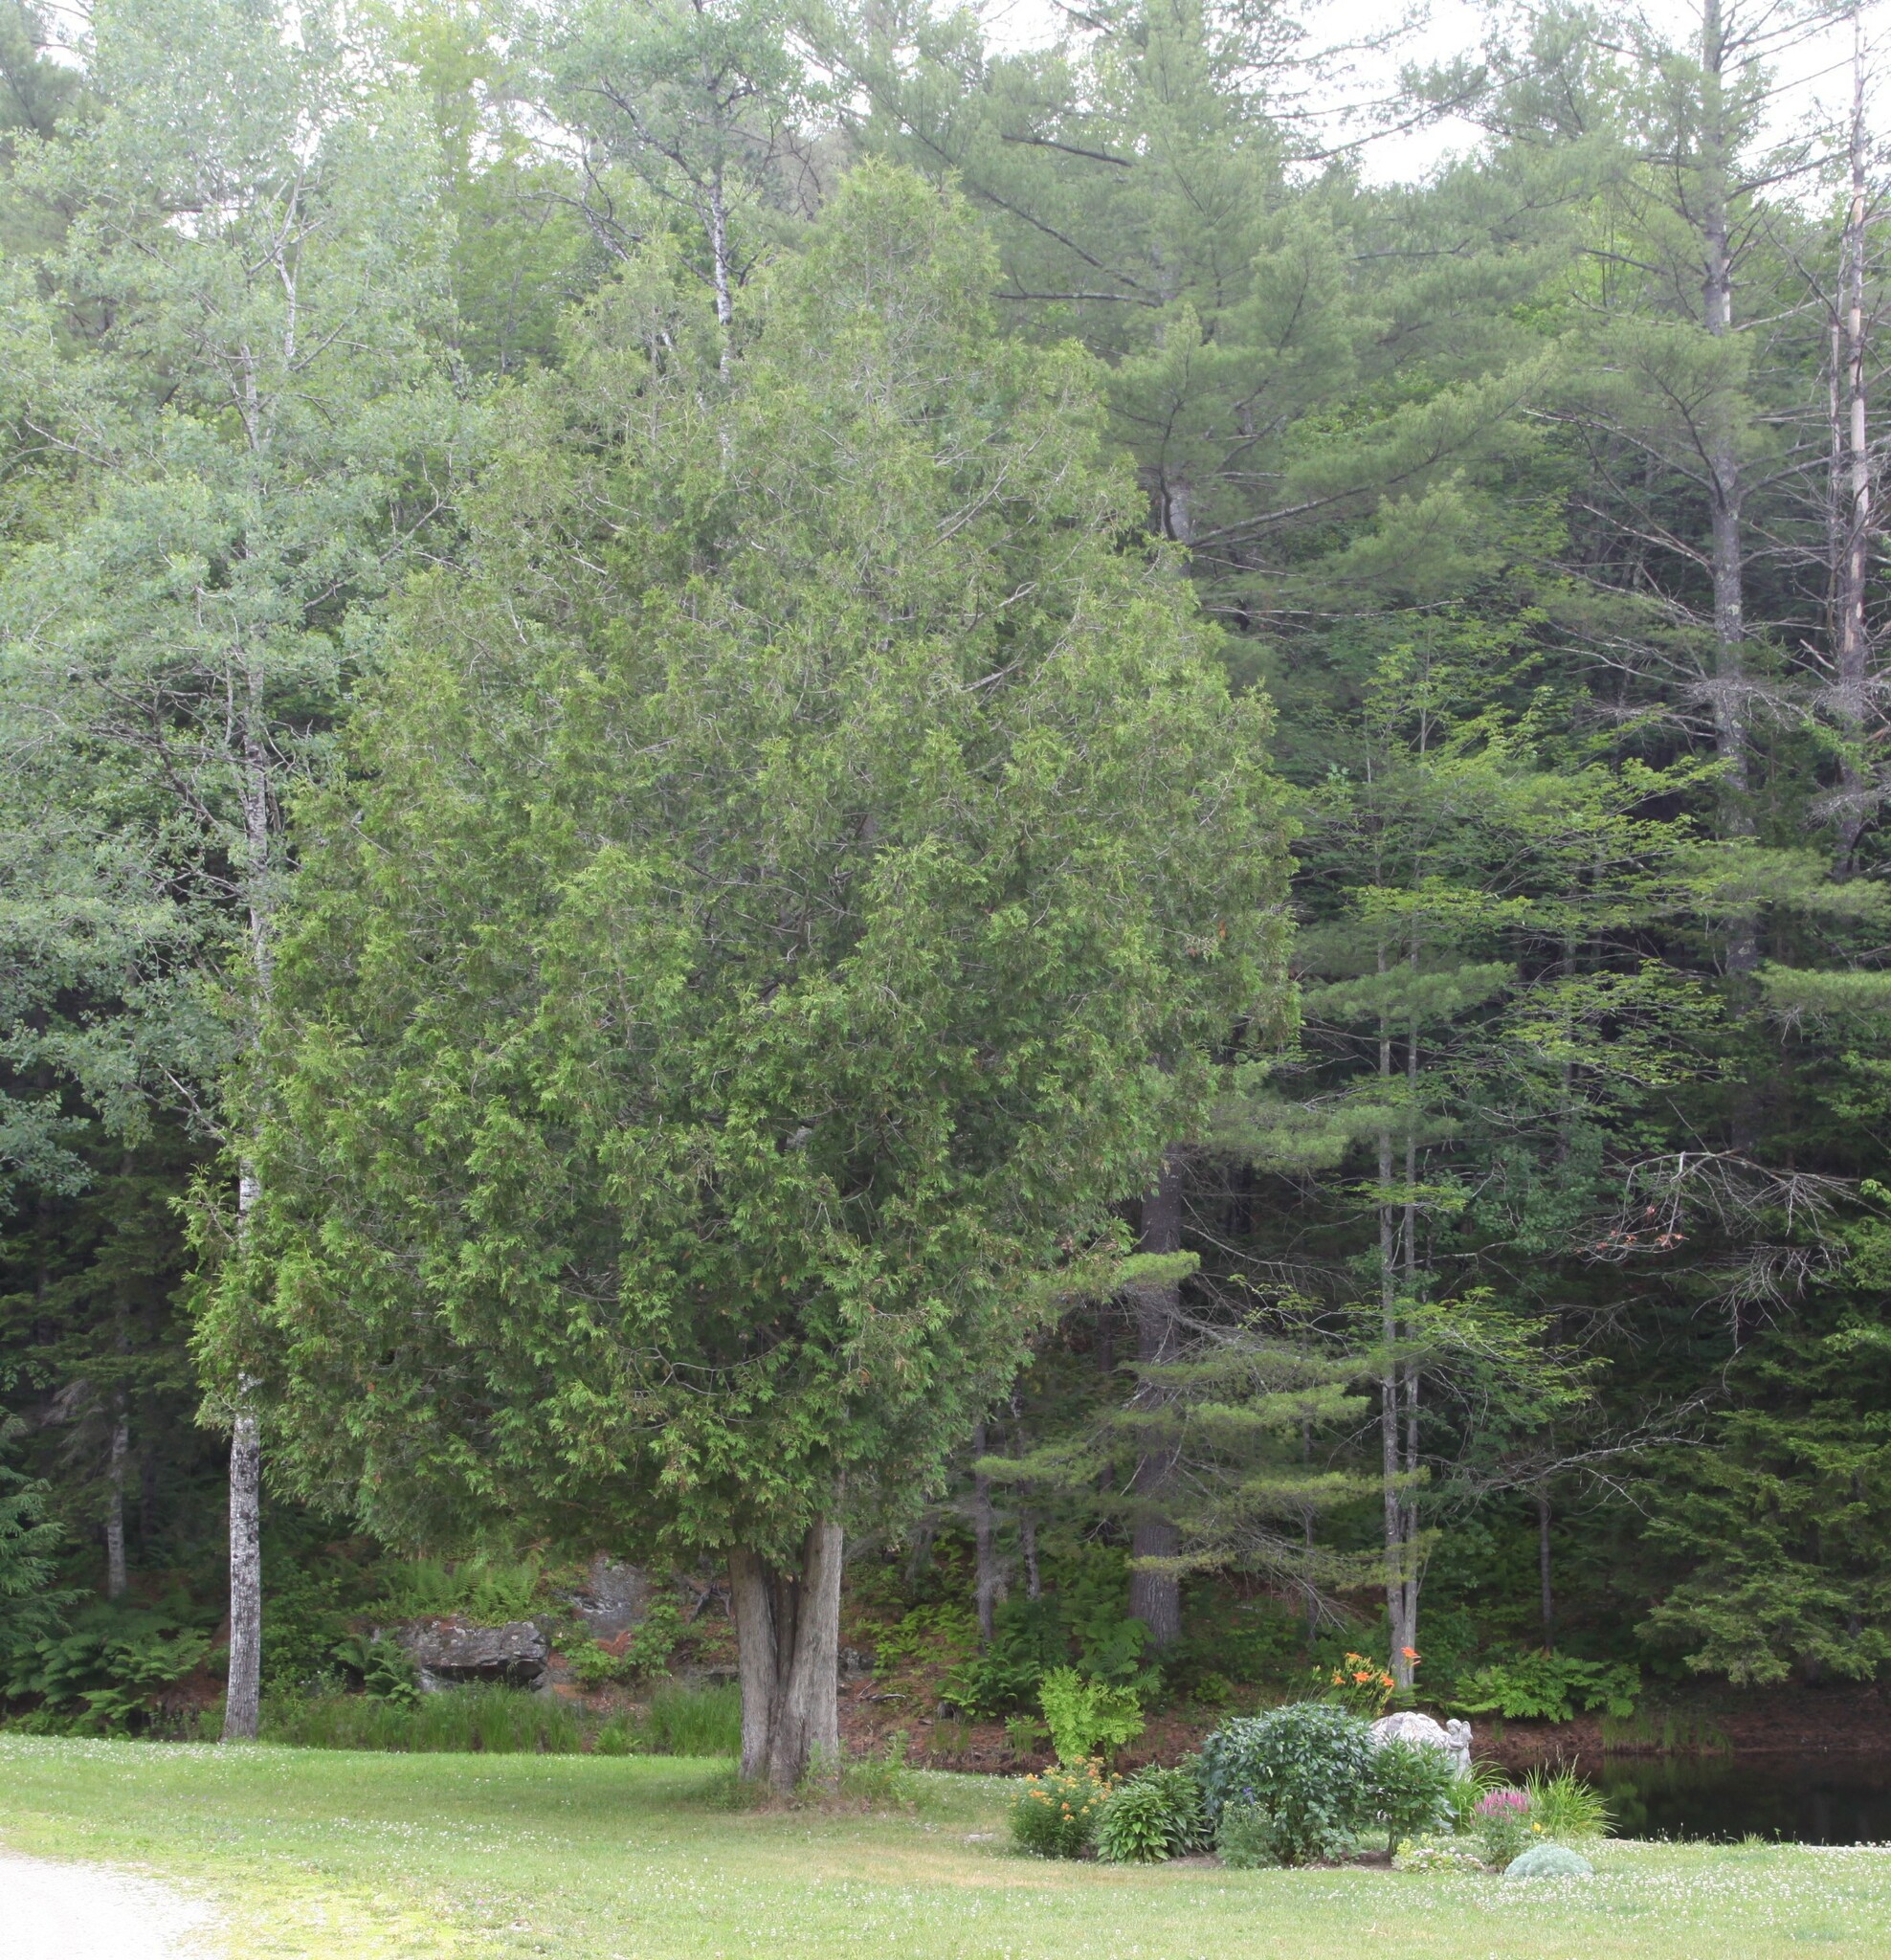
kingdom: Plantae
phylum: Tracheophyta
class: Pinopsida
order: Pinales
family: Cupressaceae
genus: Thuja
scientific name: Thuja occidentalis
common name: Northern white-cedar
